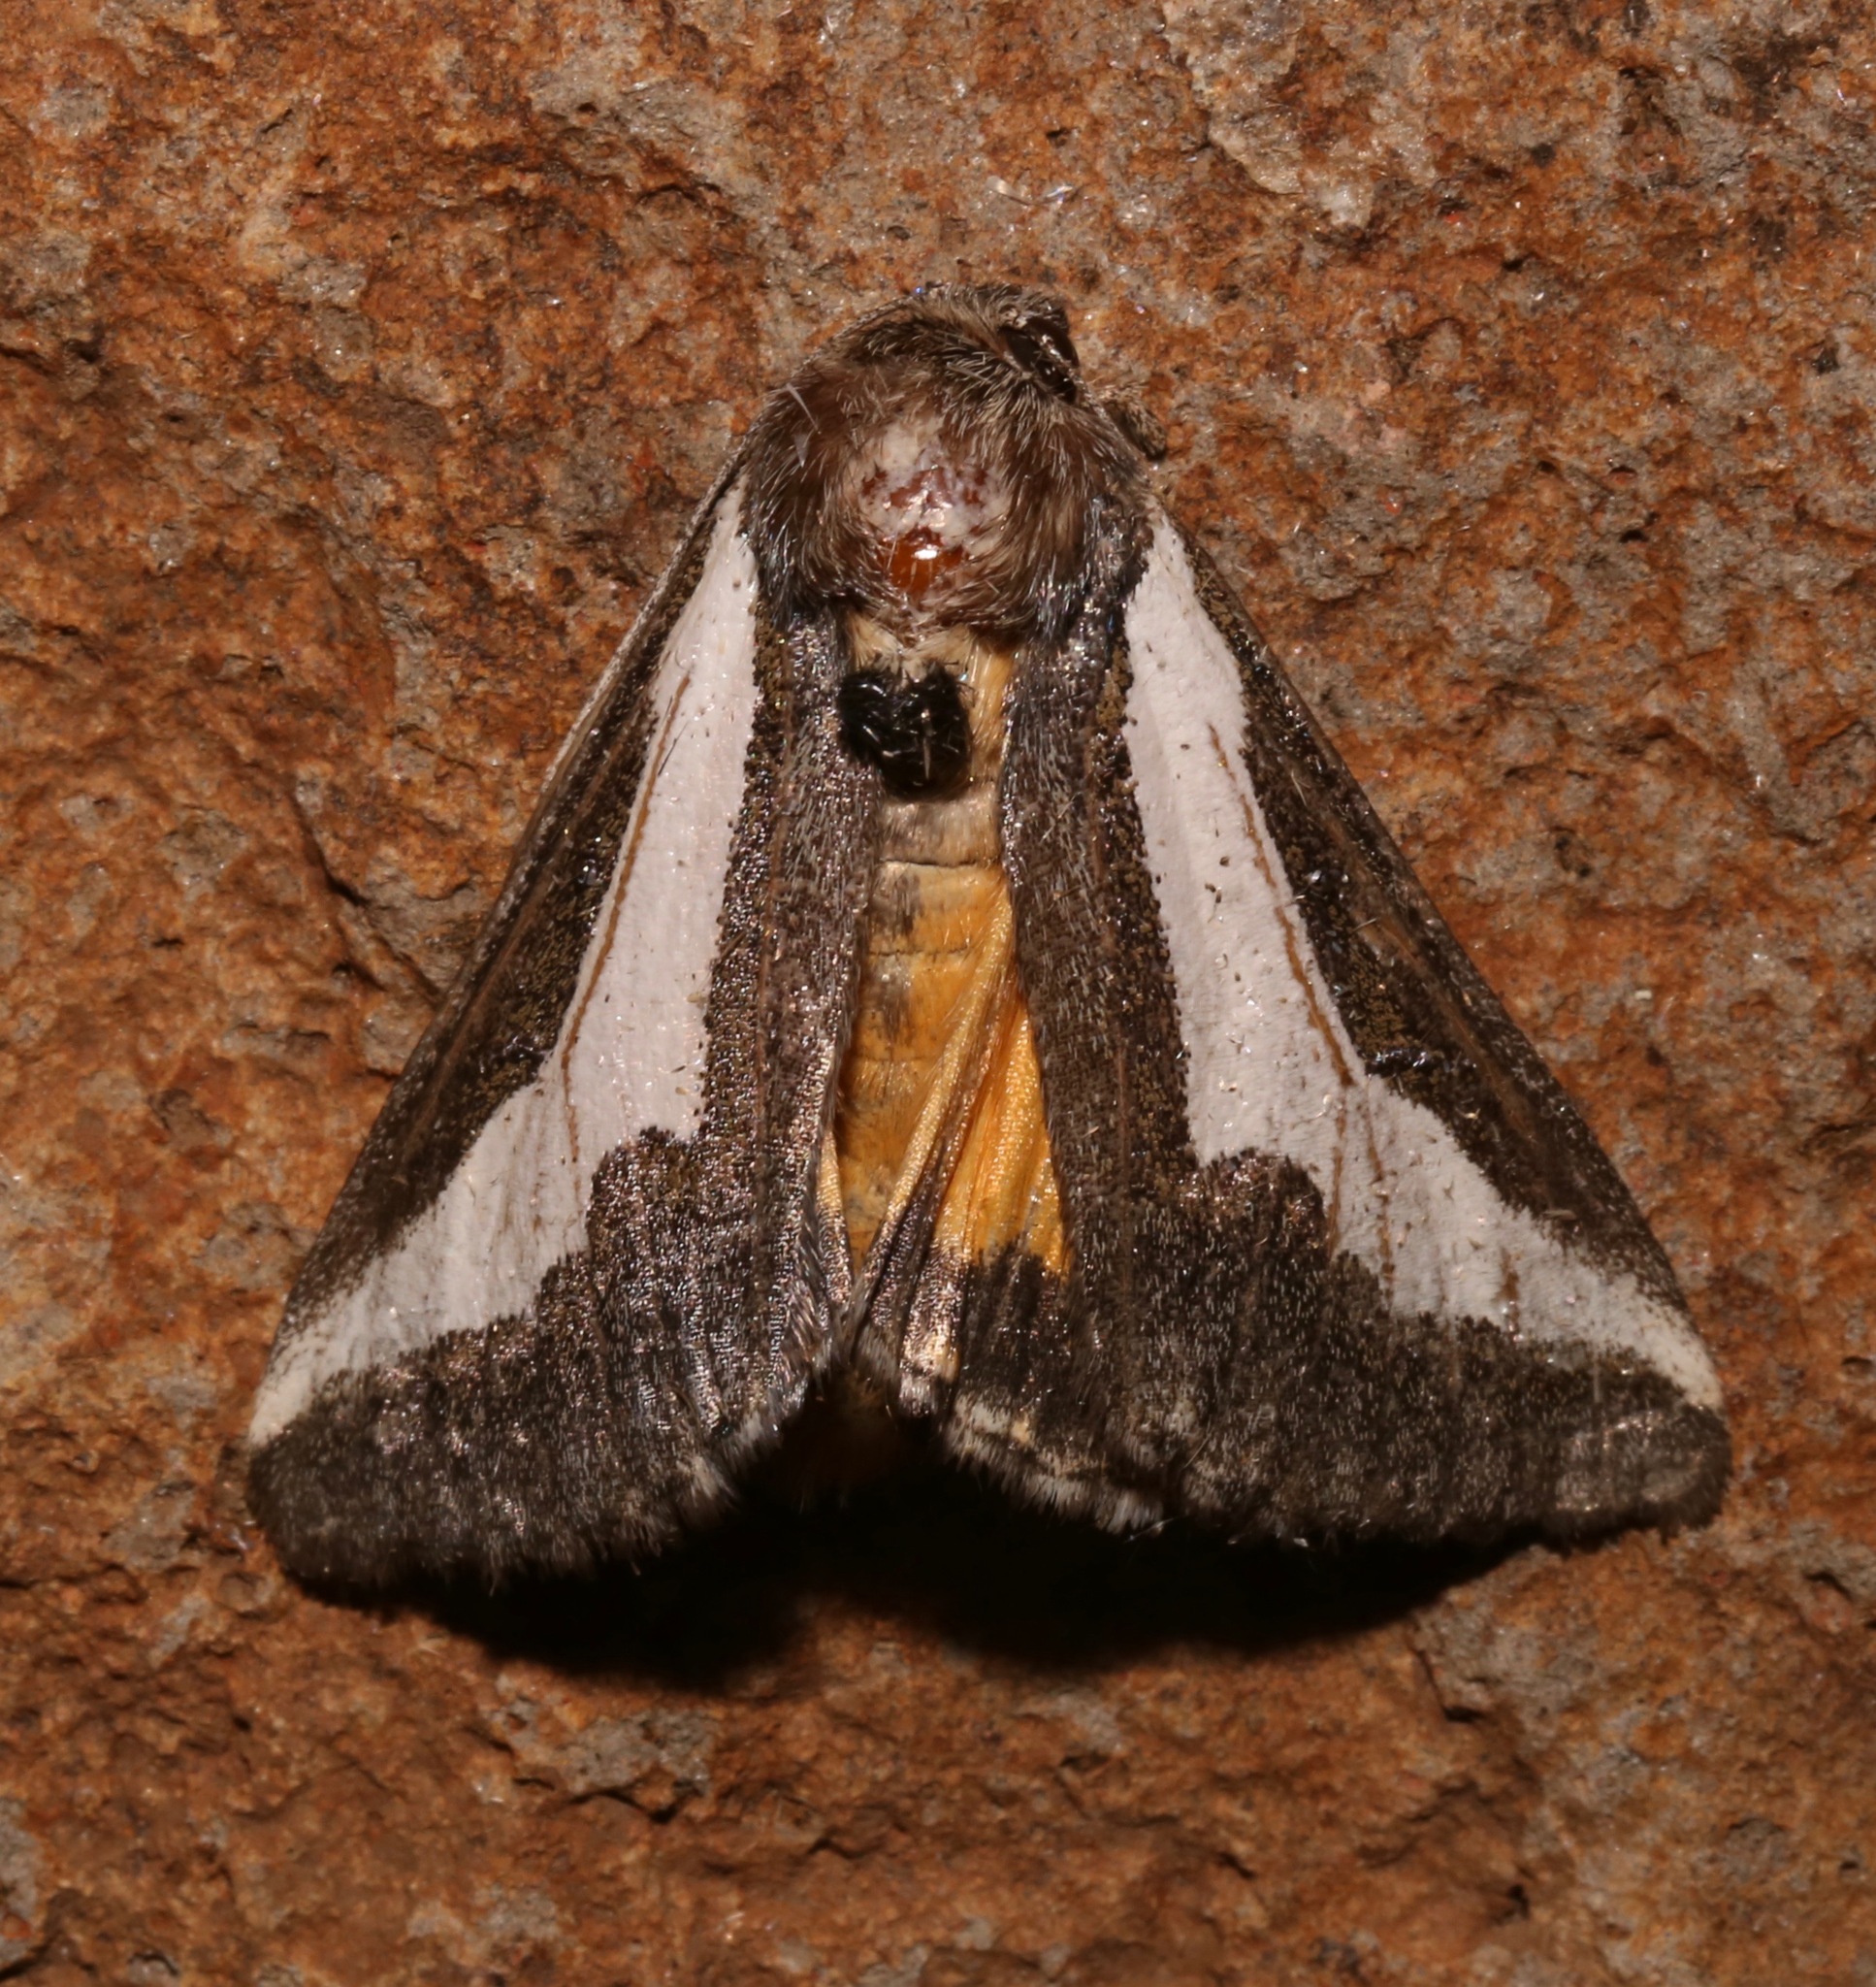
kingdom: Animalia
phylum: Arthropoda
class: Insecta
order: Lepidoptera
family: Noctuidae
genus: Euscirrhopterus
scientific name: Euscirrhopterus cosyra
